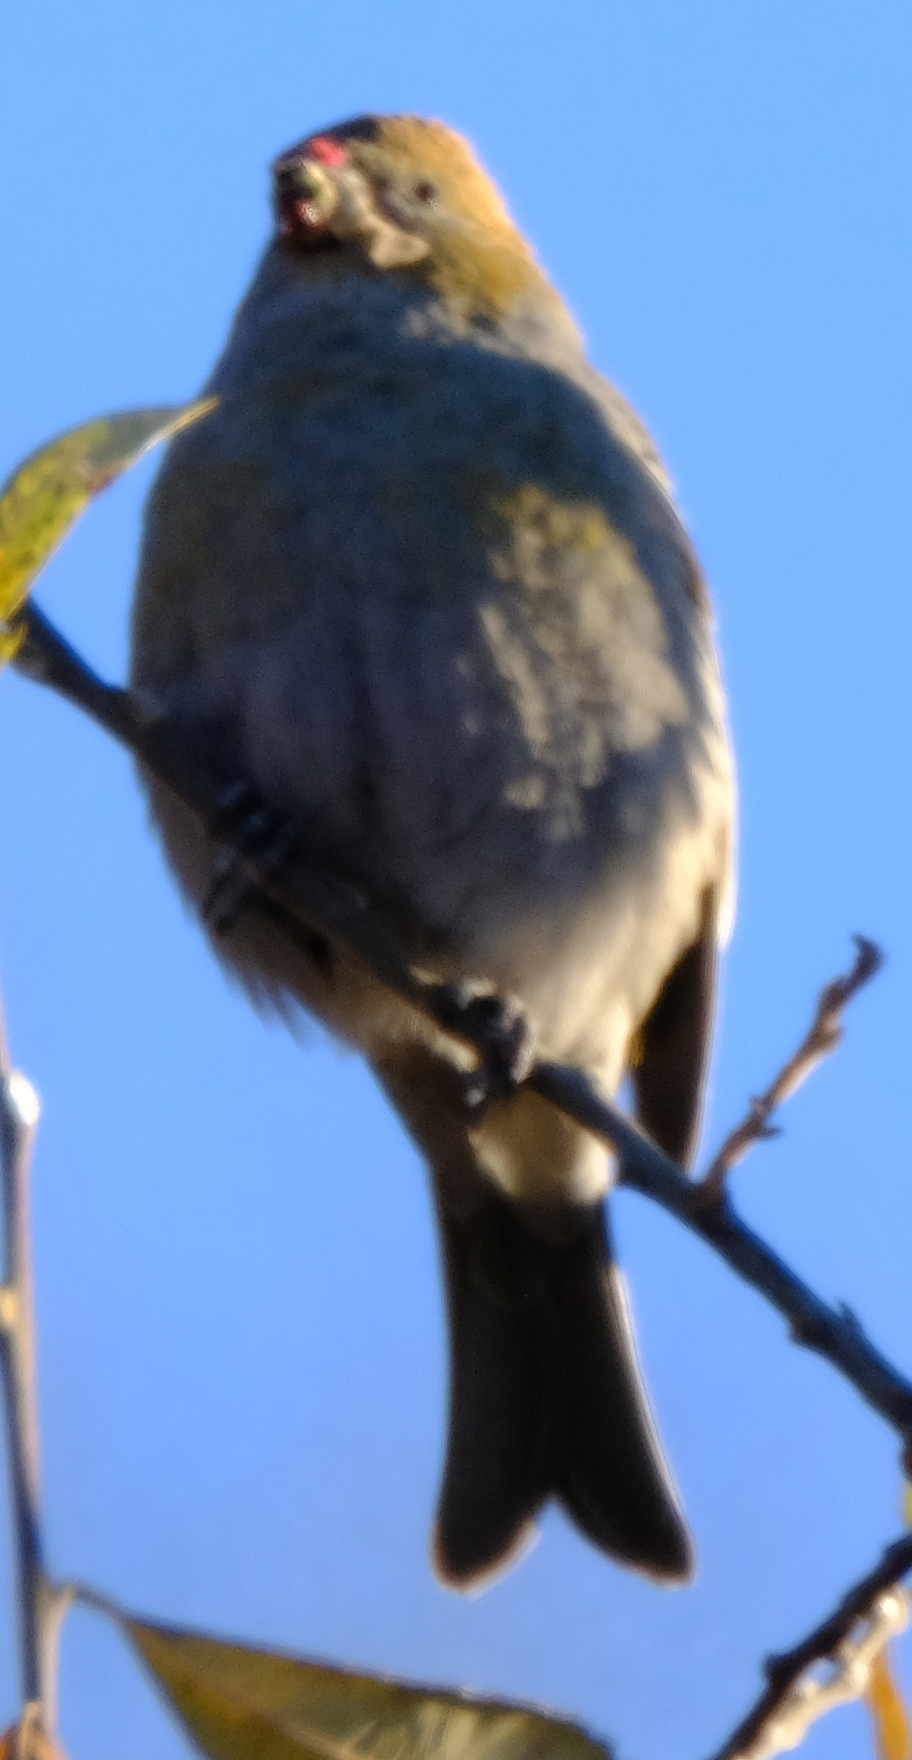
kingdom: Animalia
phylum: Chordata
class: Aves
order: Passeriformes
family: Fringillidae
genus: Pinicola
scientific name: Pinicola enucleator
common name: Pine grosbeak
